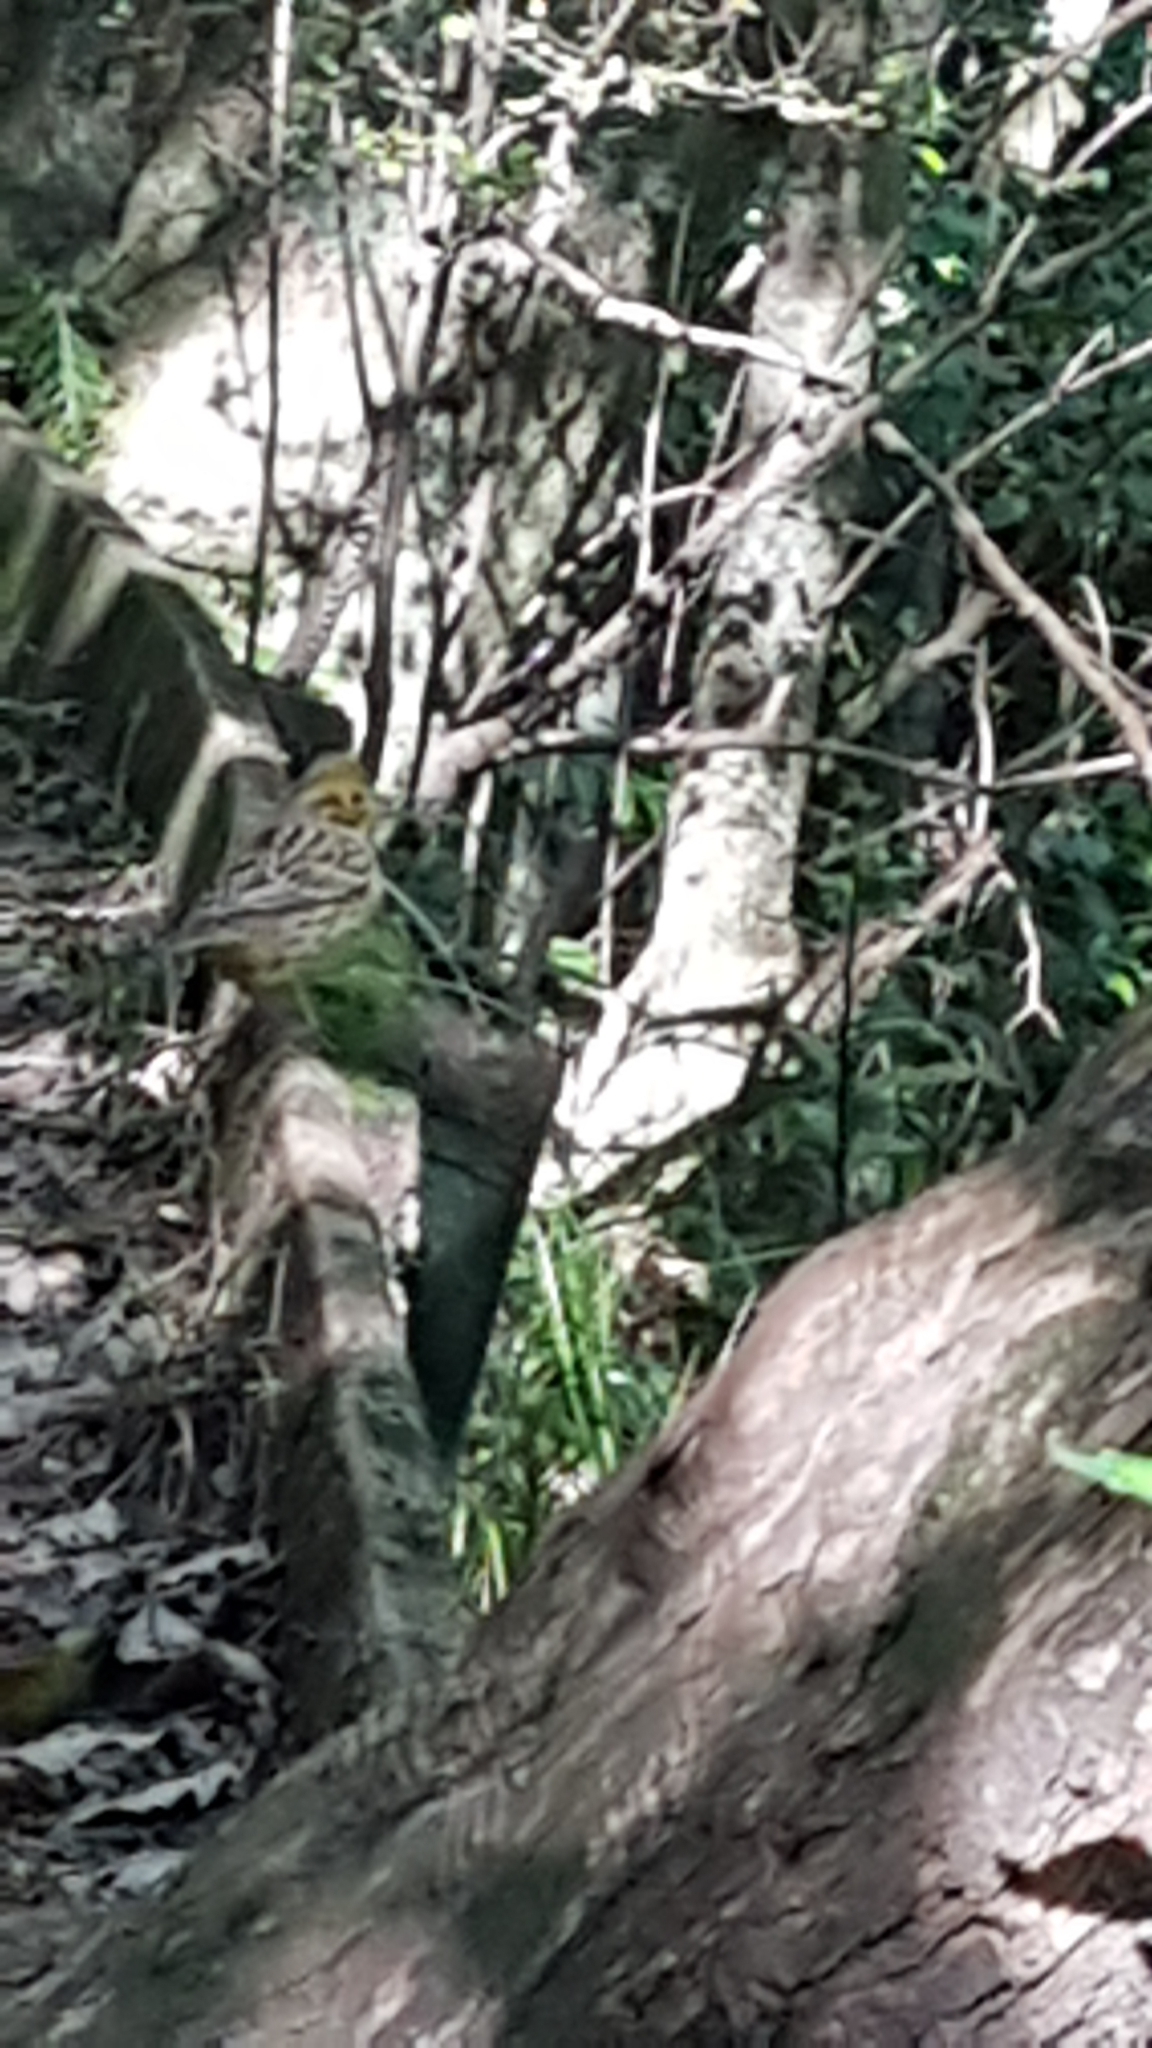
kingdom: Animalia
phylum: Chordata
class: Aves
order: Passeriformes
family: Alaudidae
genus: Alauda
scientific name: Alauda arvensis
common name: Eurasian skylark
